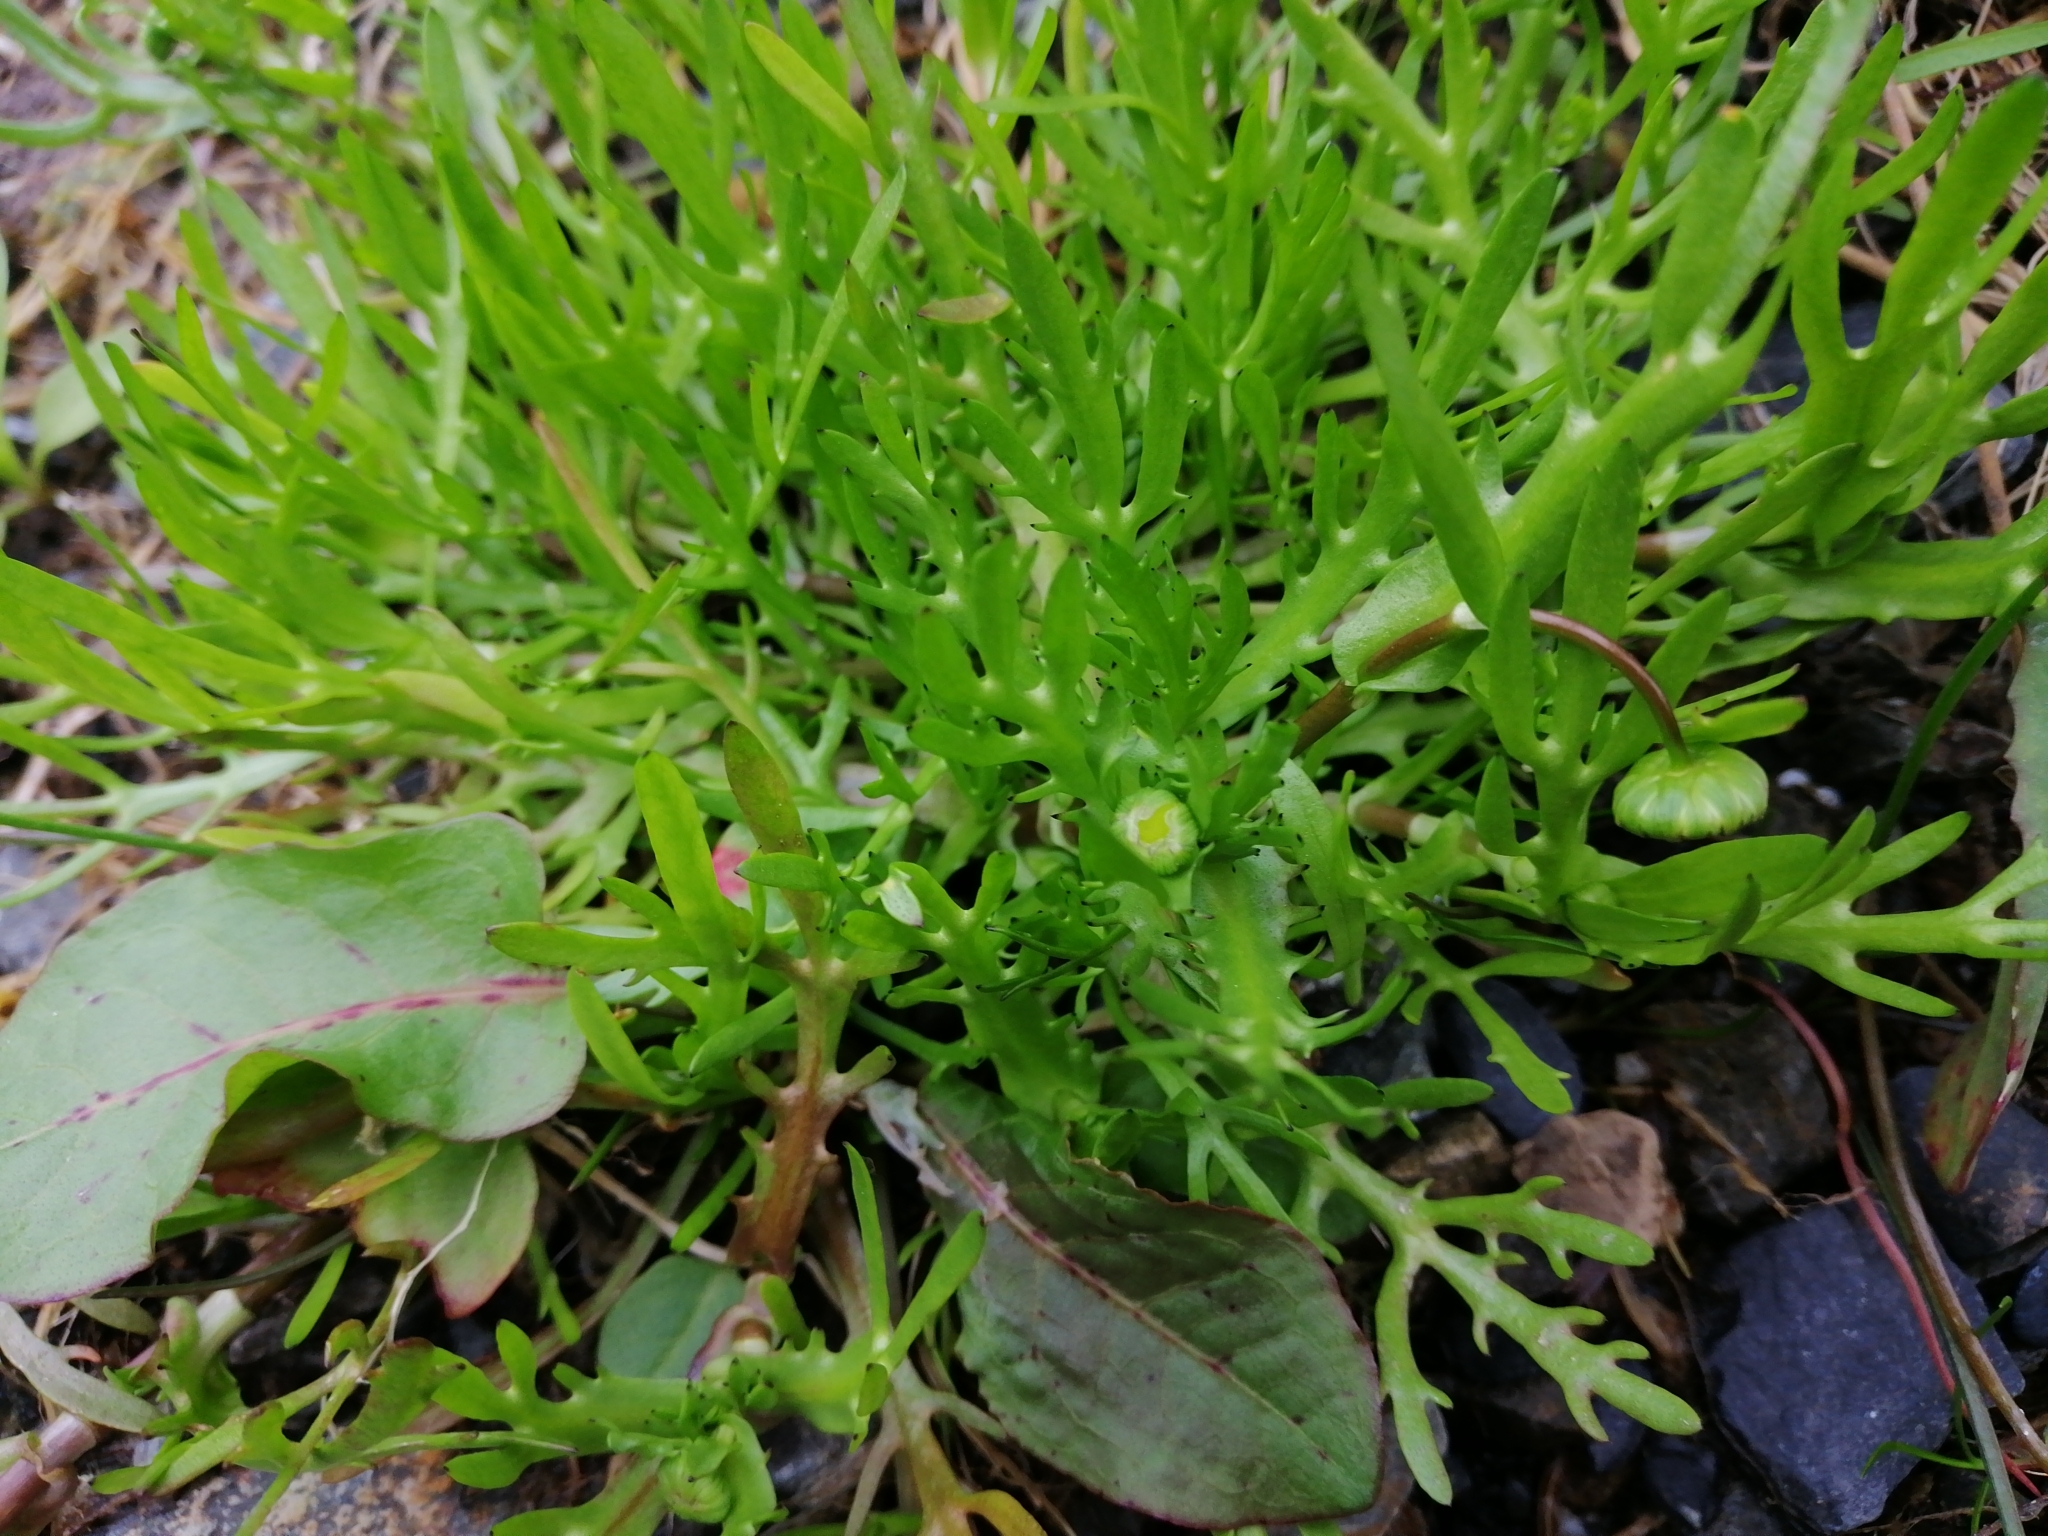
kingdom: Plantae
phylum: Tracheophyta
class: Magnoliopsida
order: Asterales
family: Asteraceae
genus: Cotula
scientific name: Cotula coronopifolia
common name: Buttonweed
